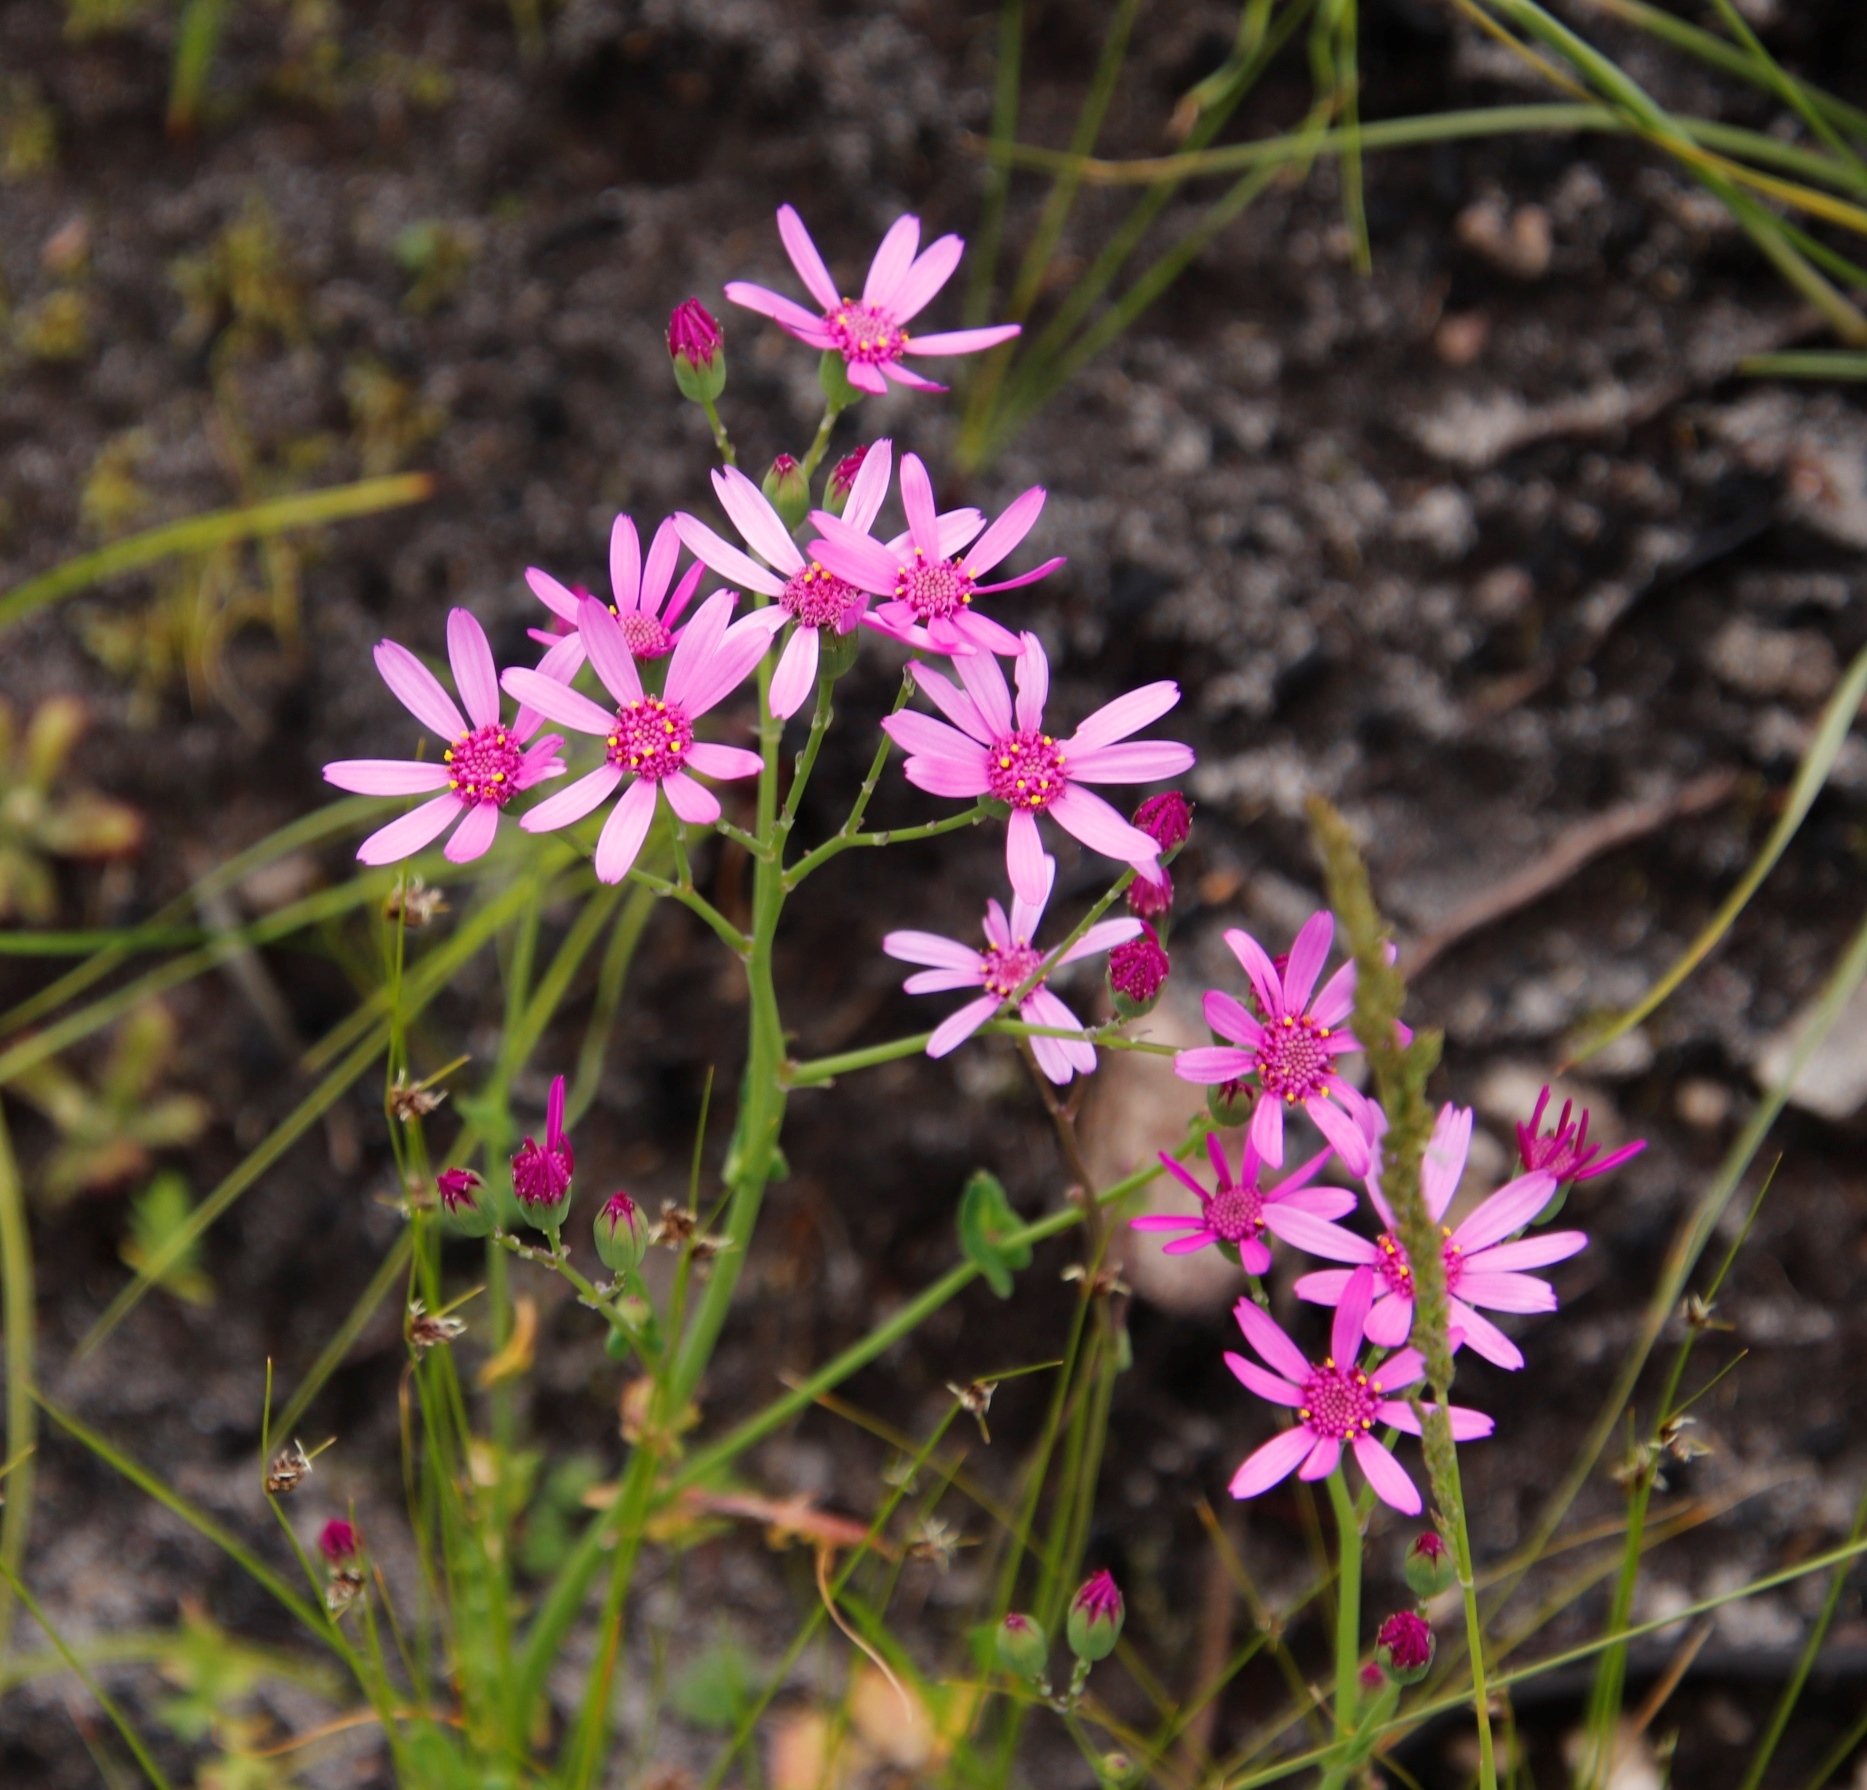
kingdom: Plantae
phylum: Tracheophyta
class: Magnoliopsida
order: Asterales
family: Asteraceae
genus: Senecio
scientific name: Senecio cymbalariifolius
